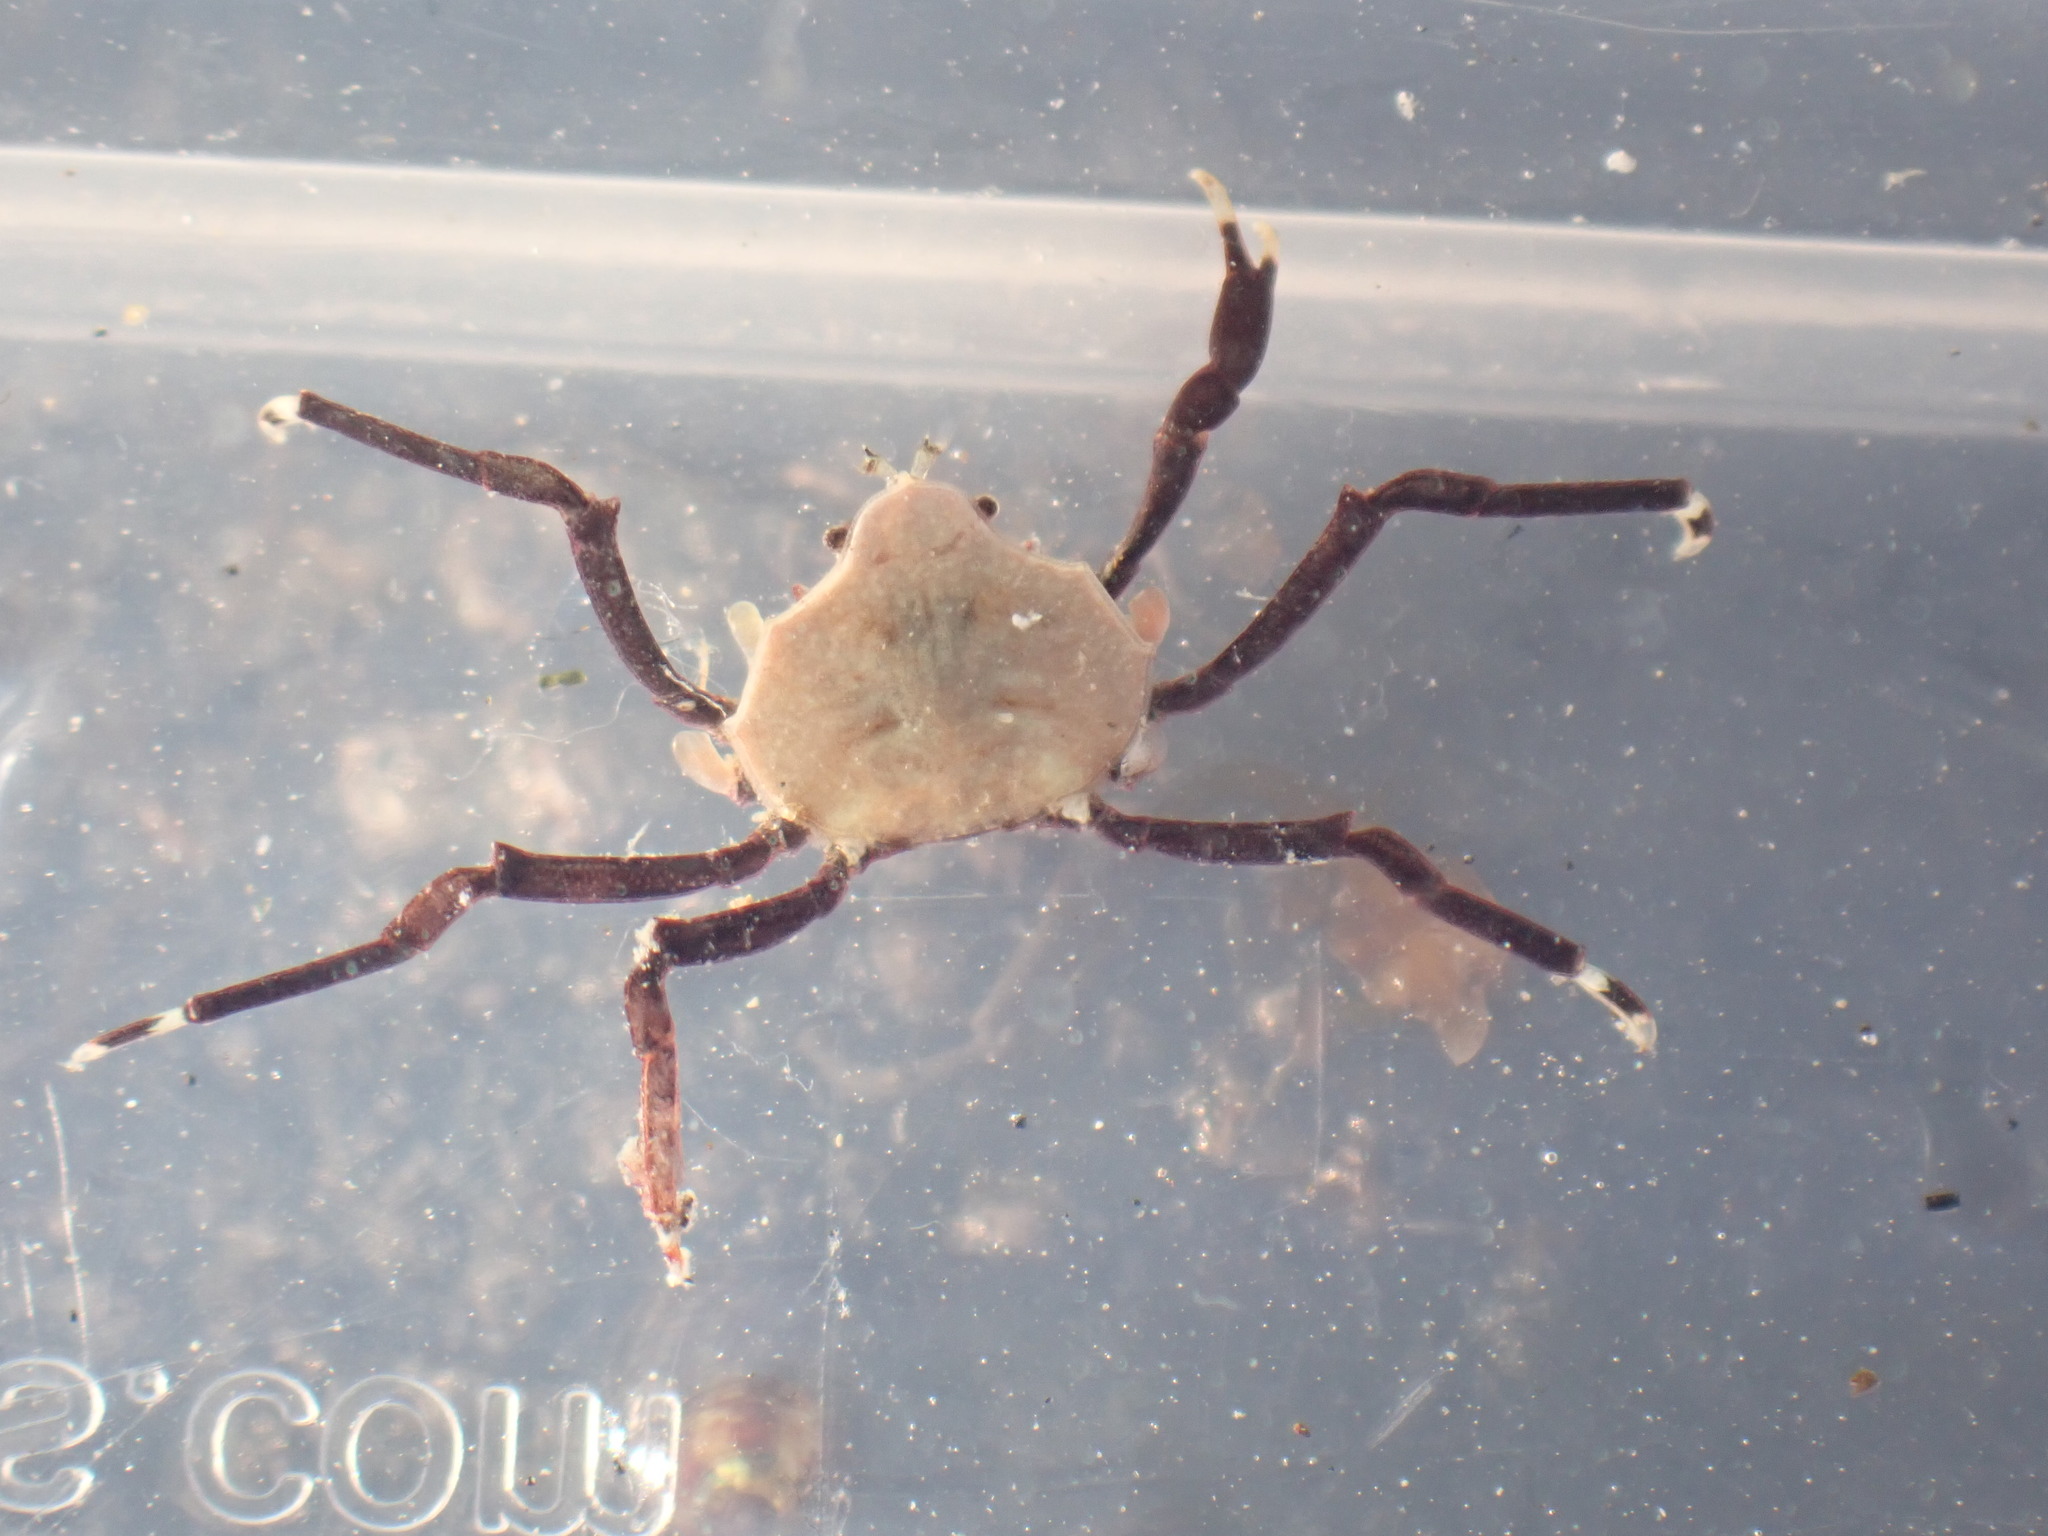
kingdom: Animalia
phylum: Arthropoda
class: Malacostraca
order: Decapoda
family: Hymenosomatidae
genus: Elamena
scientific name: Elamena producta
